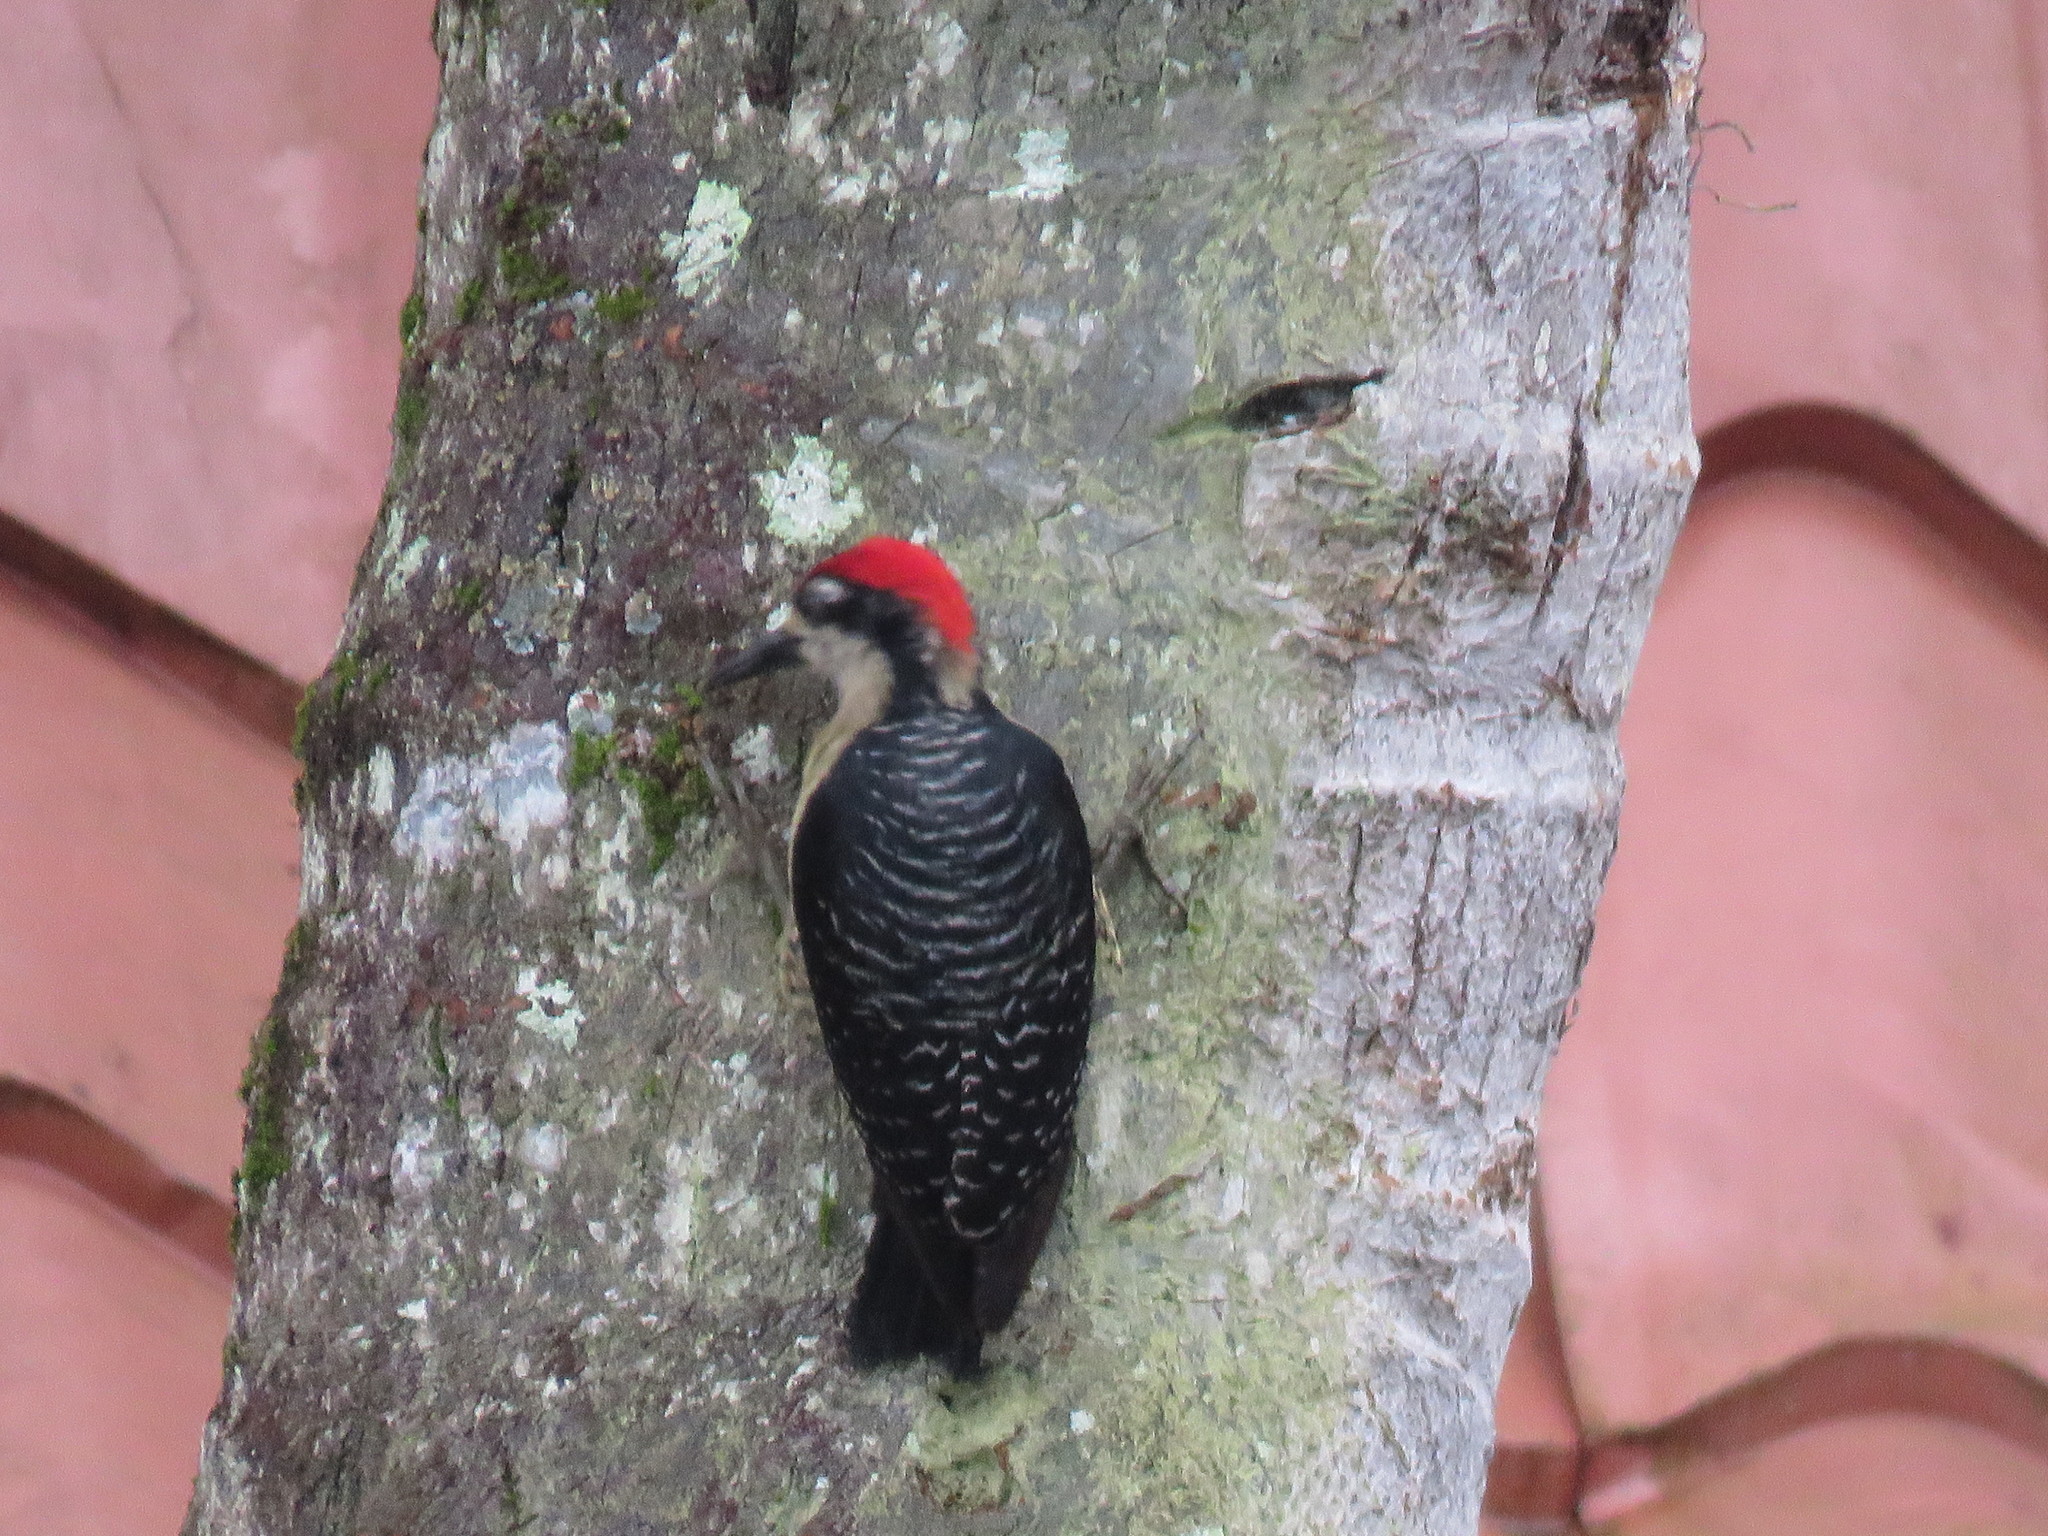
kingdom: Animalia
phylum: Chordata
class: Aves
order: Piciformes
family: Picidae
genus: Melanerpes
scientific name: Melanerpes pucherani
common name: Black-cheeked woodpecker
